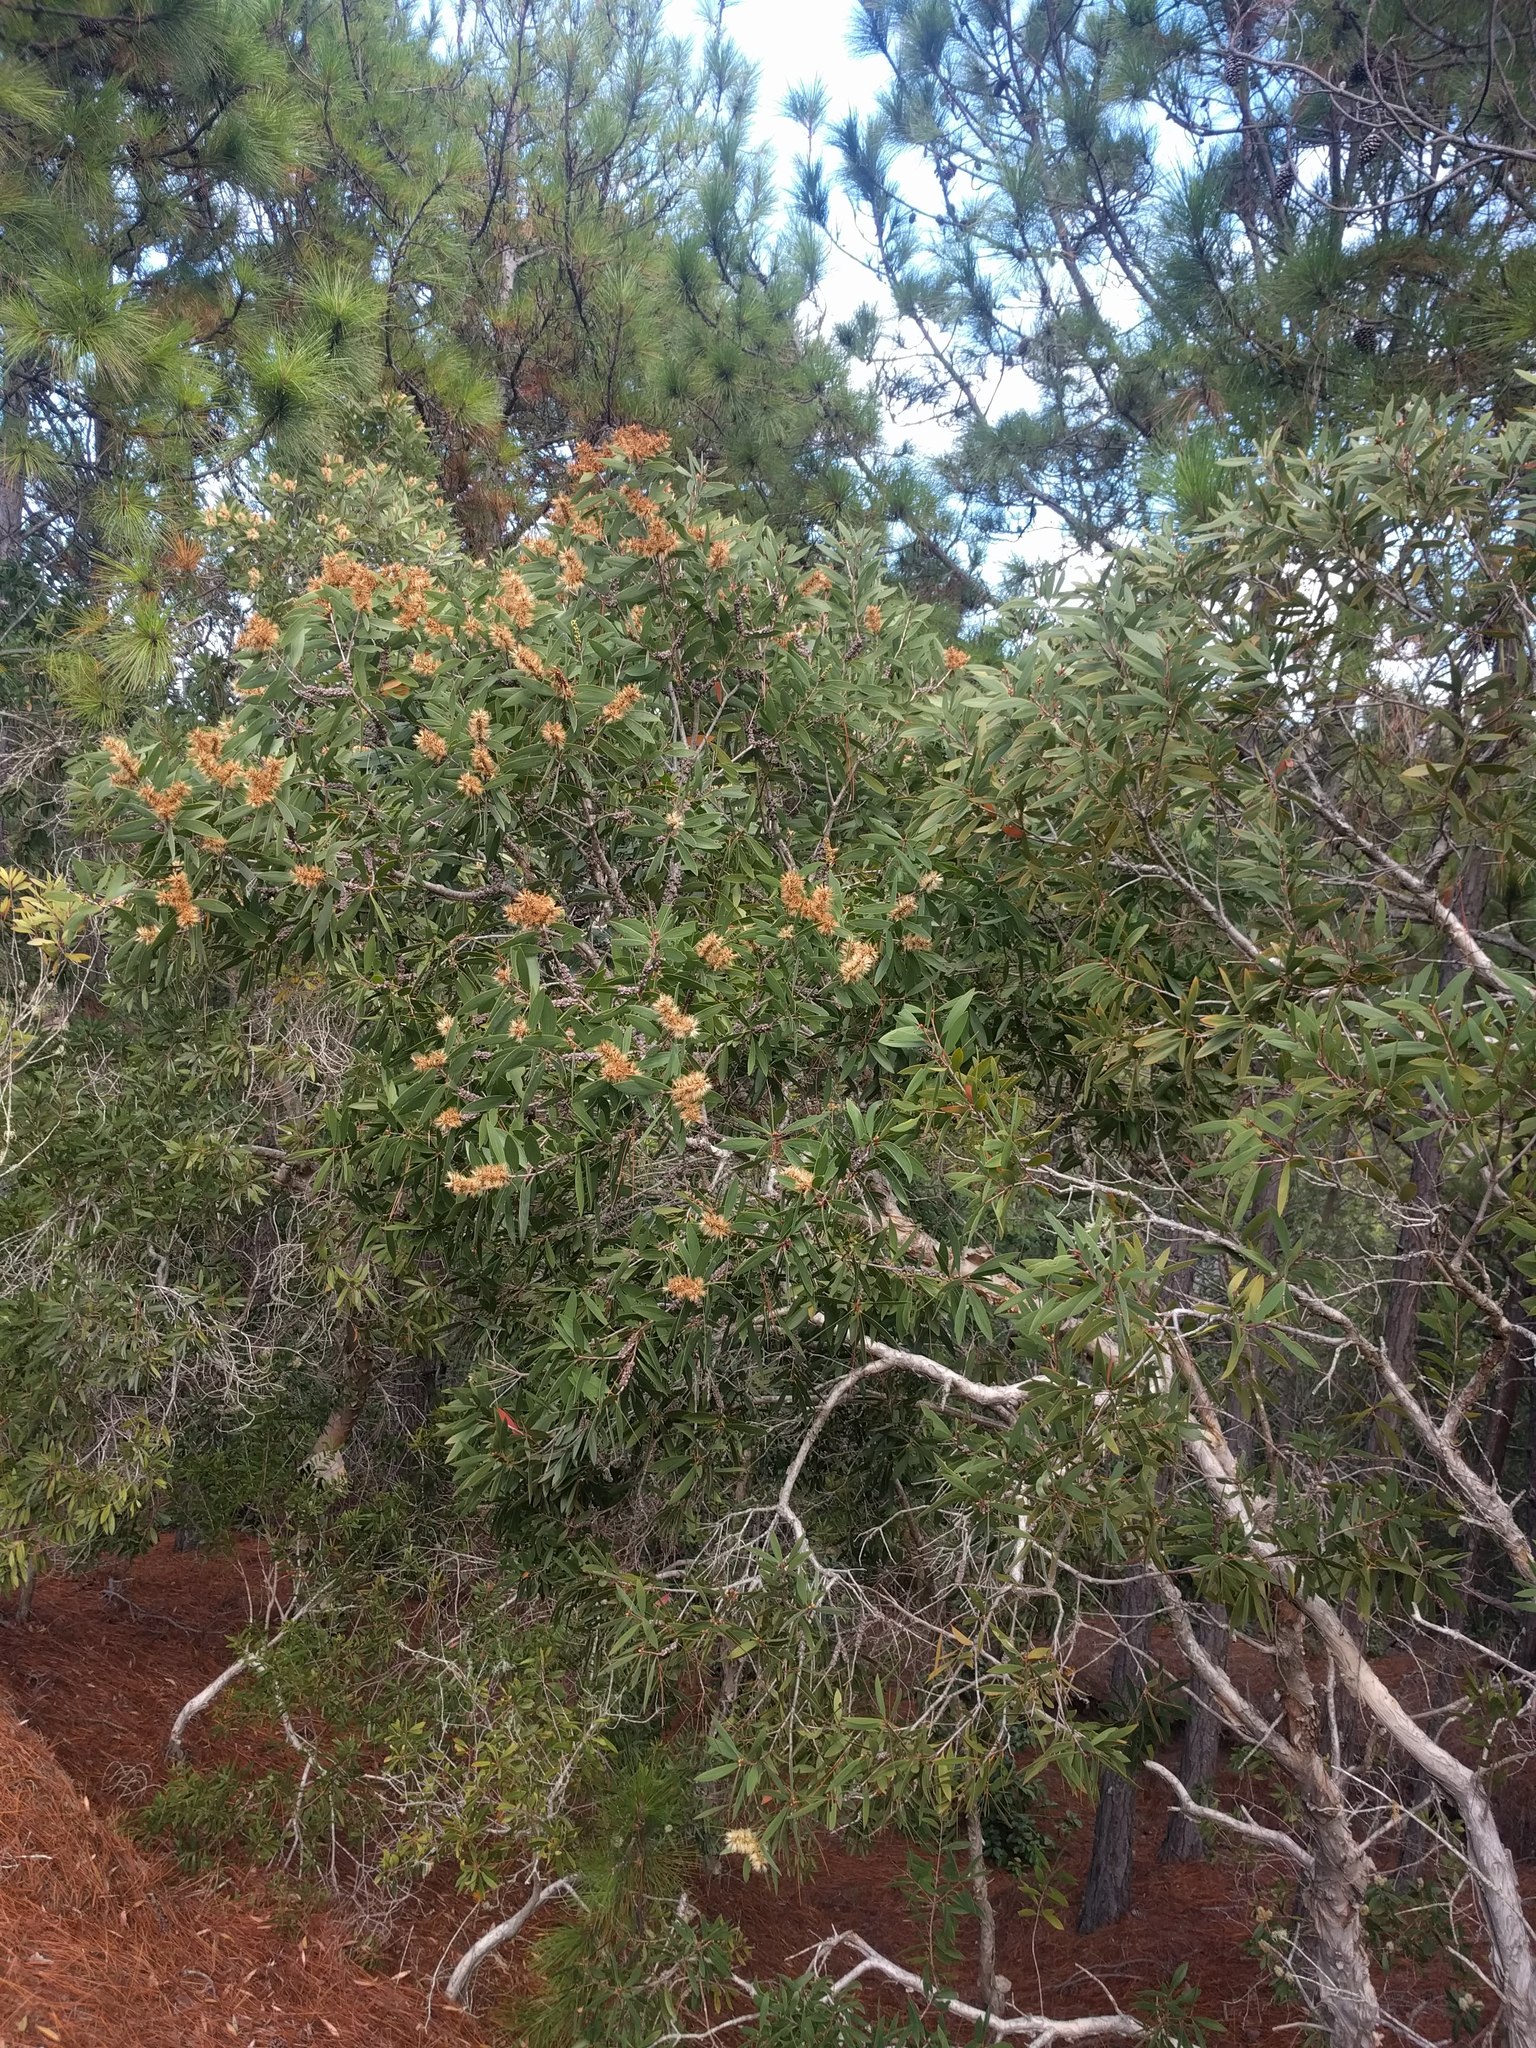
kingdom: Plantae
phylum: Tracheophyta
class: Magnoliopsida
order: Myrtales
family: Myrtaceae
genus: Melaleuca
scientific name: Melaleuca quinquenervia
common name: Punktree
